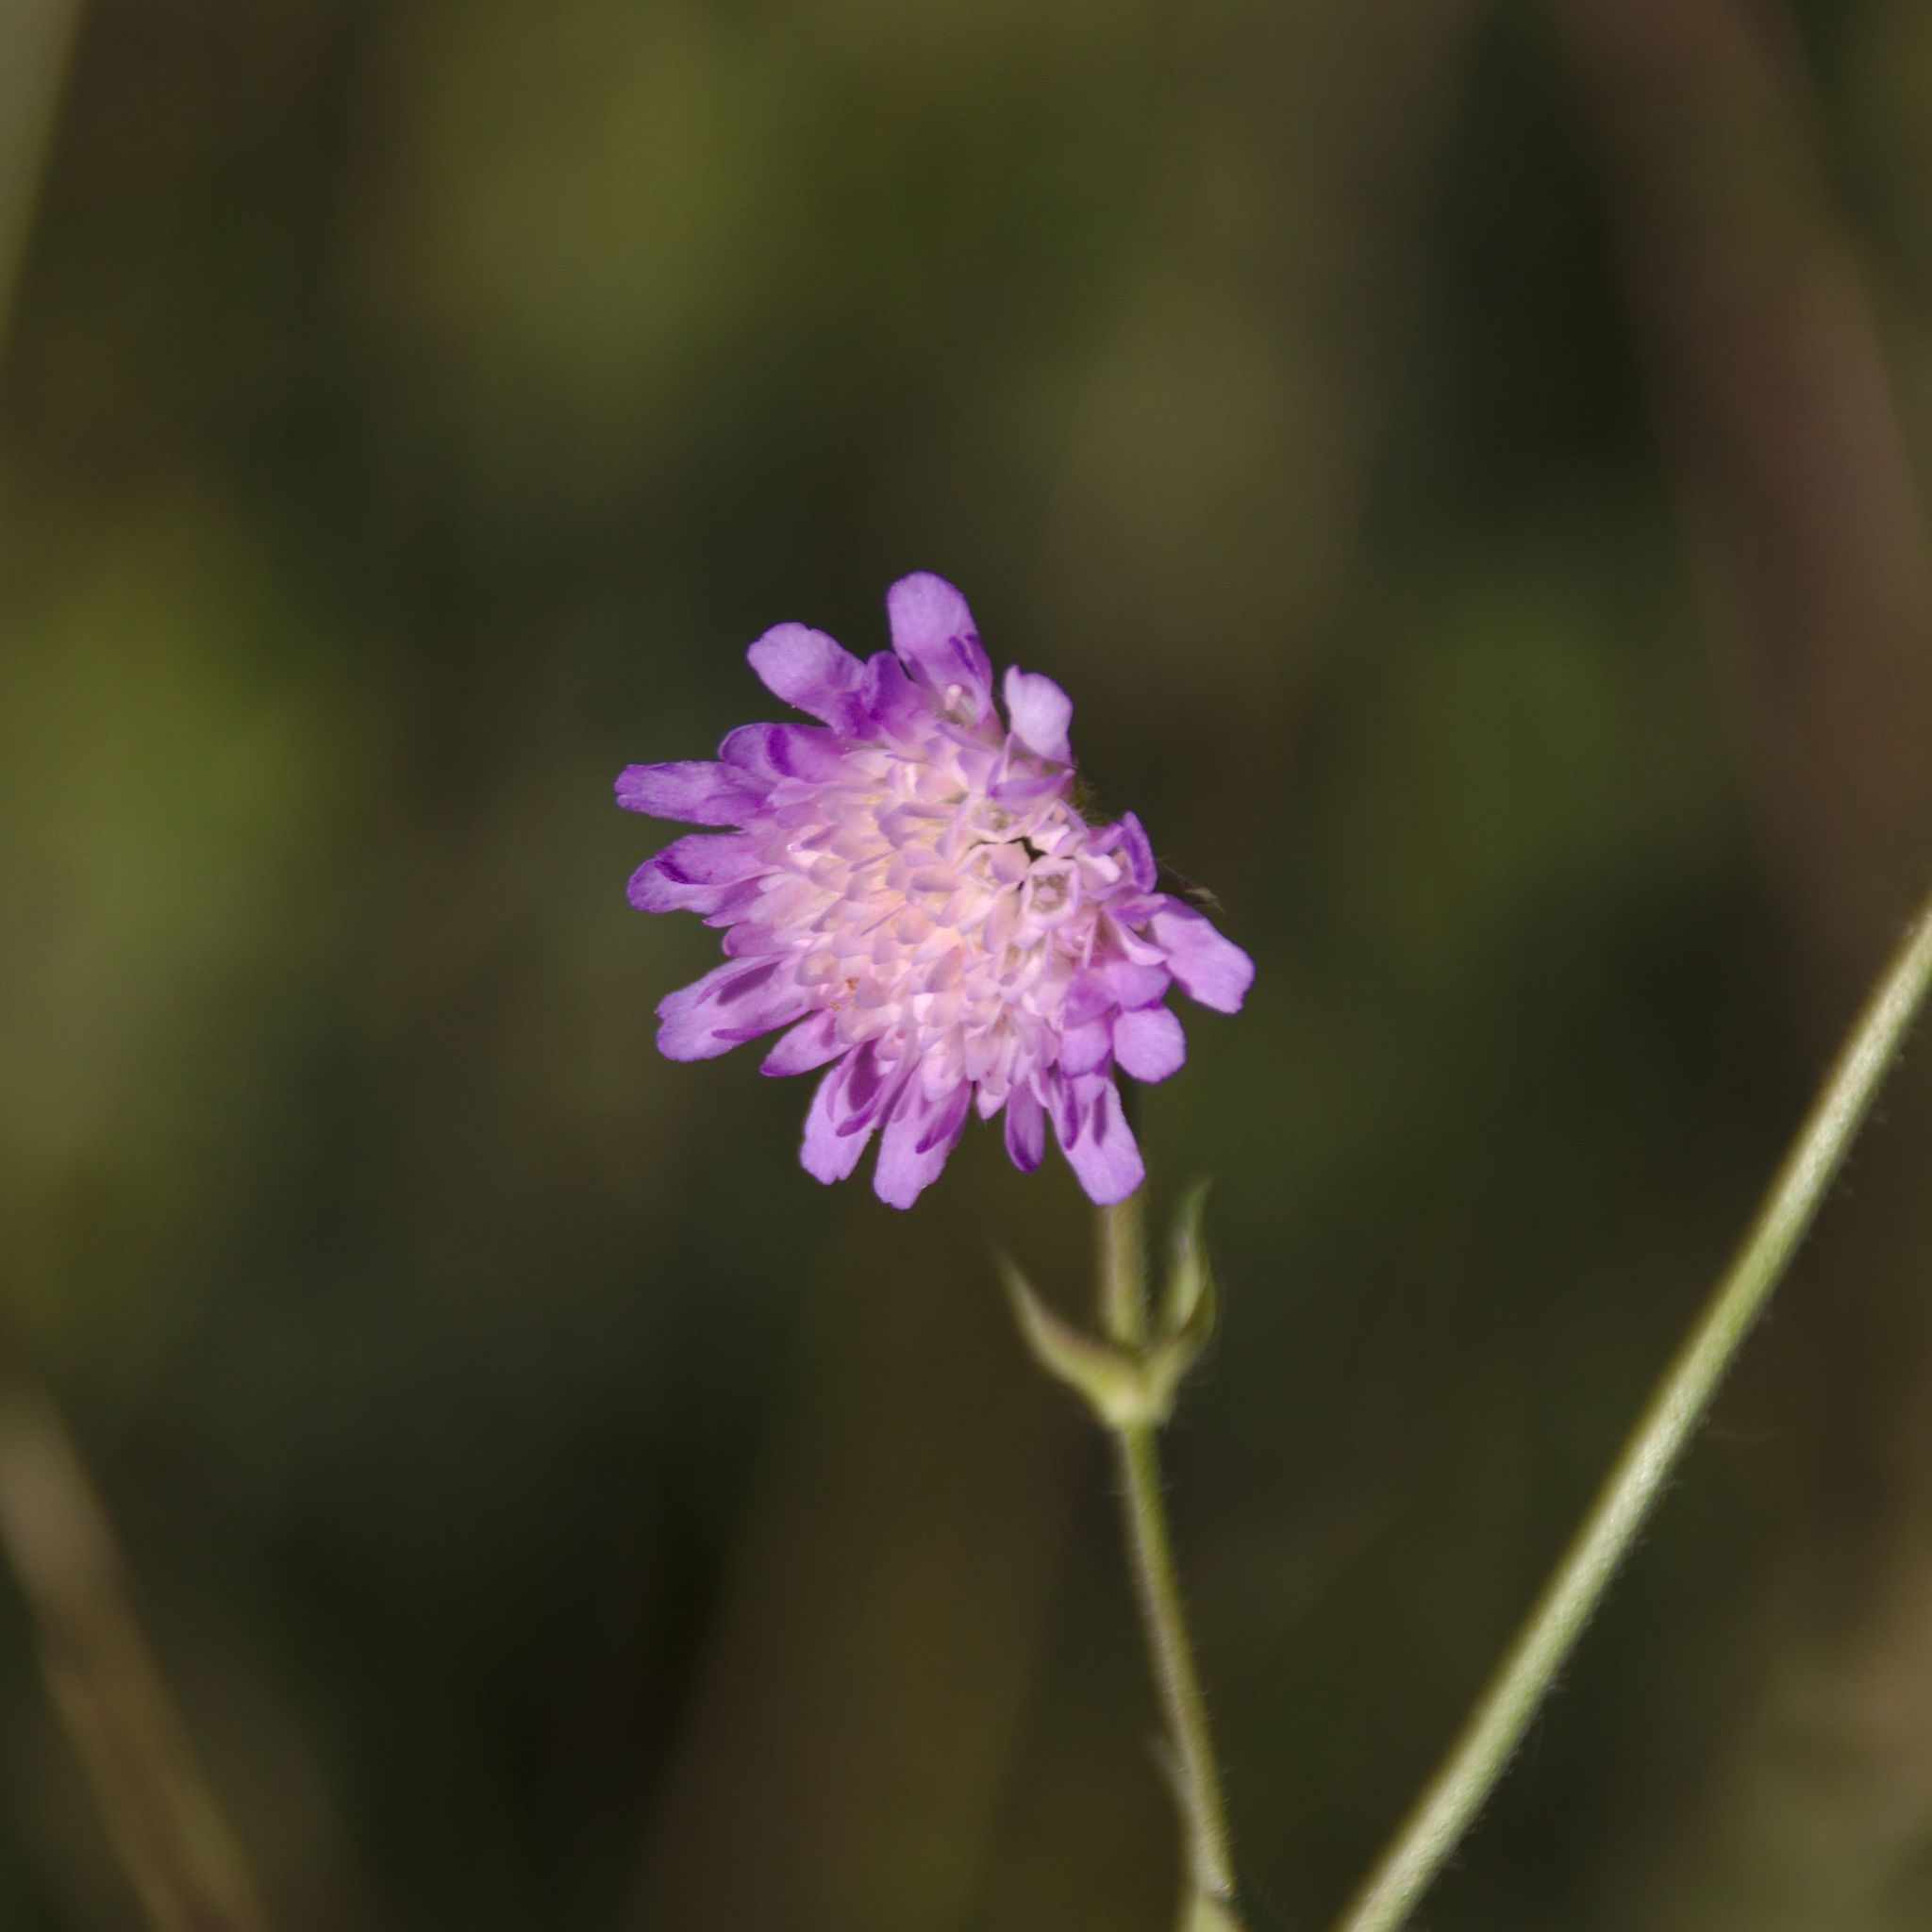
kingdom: Plantae
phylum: Tracheophyta
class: Magnoliopsida
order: Dipsacales
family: Caprifoliaceae
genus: Knautia
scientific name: Knautia arvensis
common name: Field scabiosa
